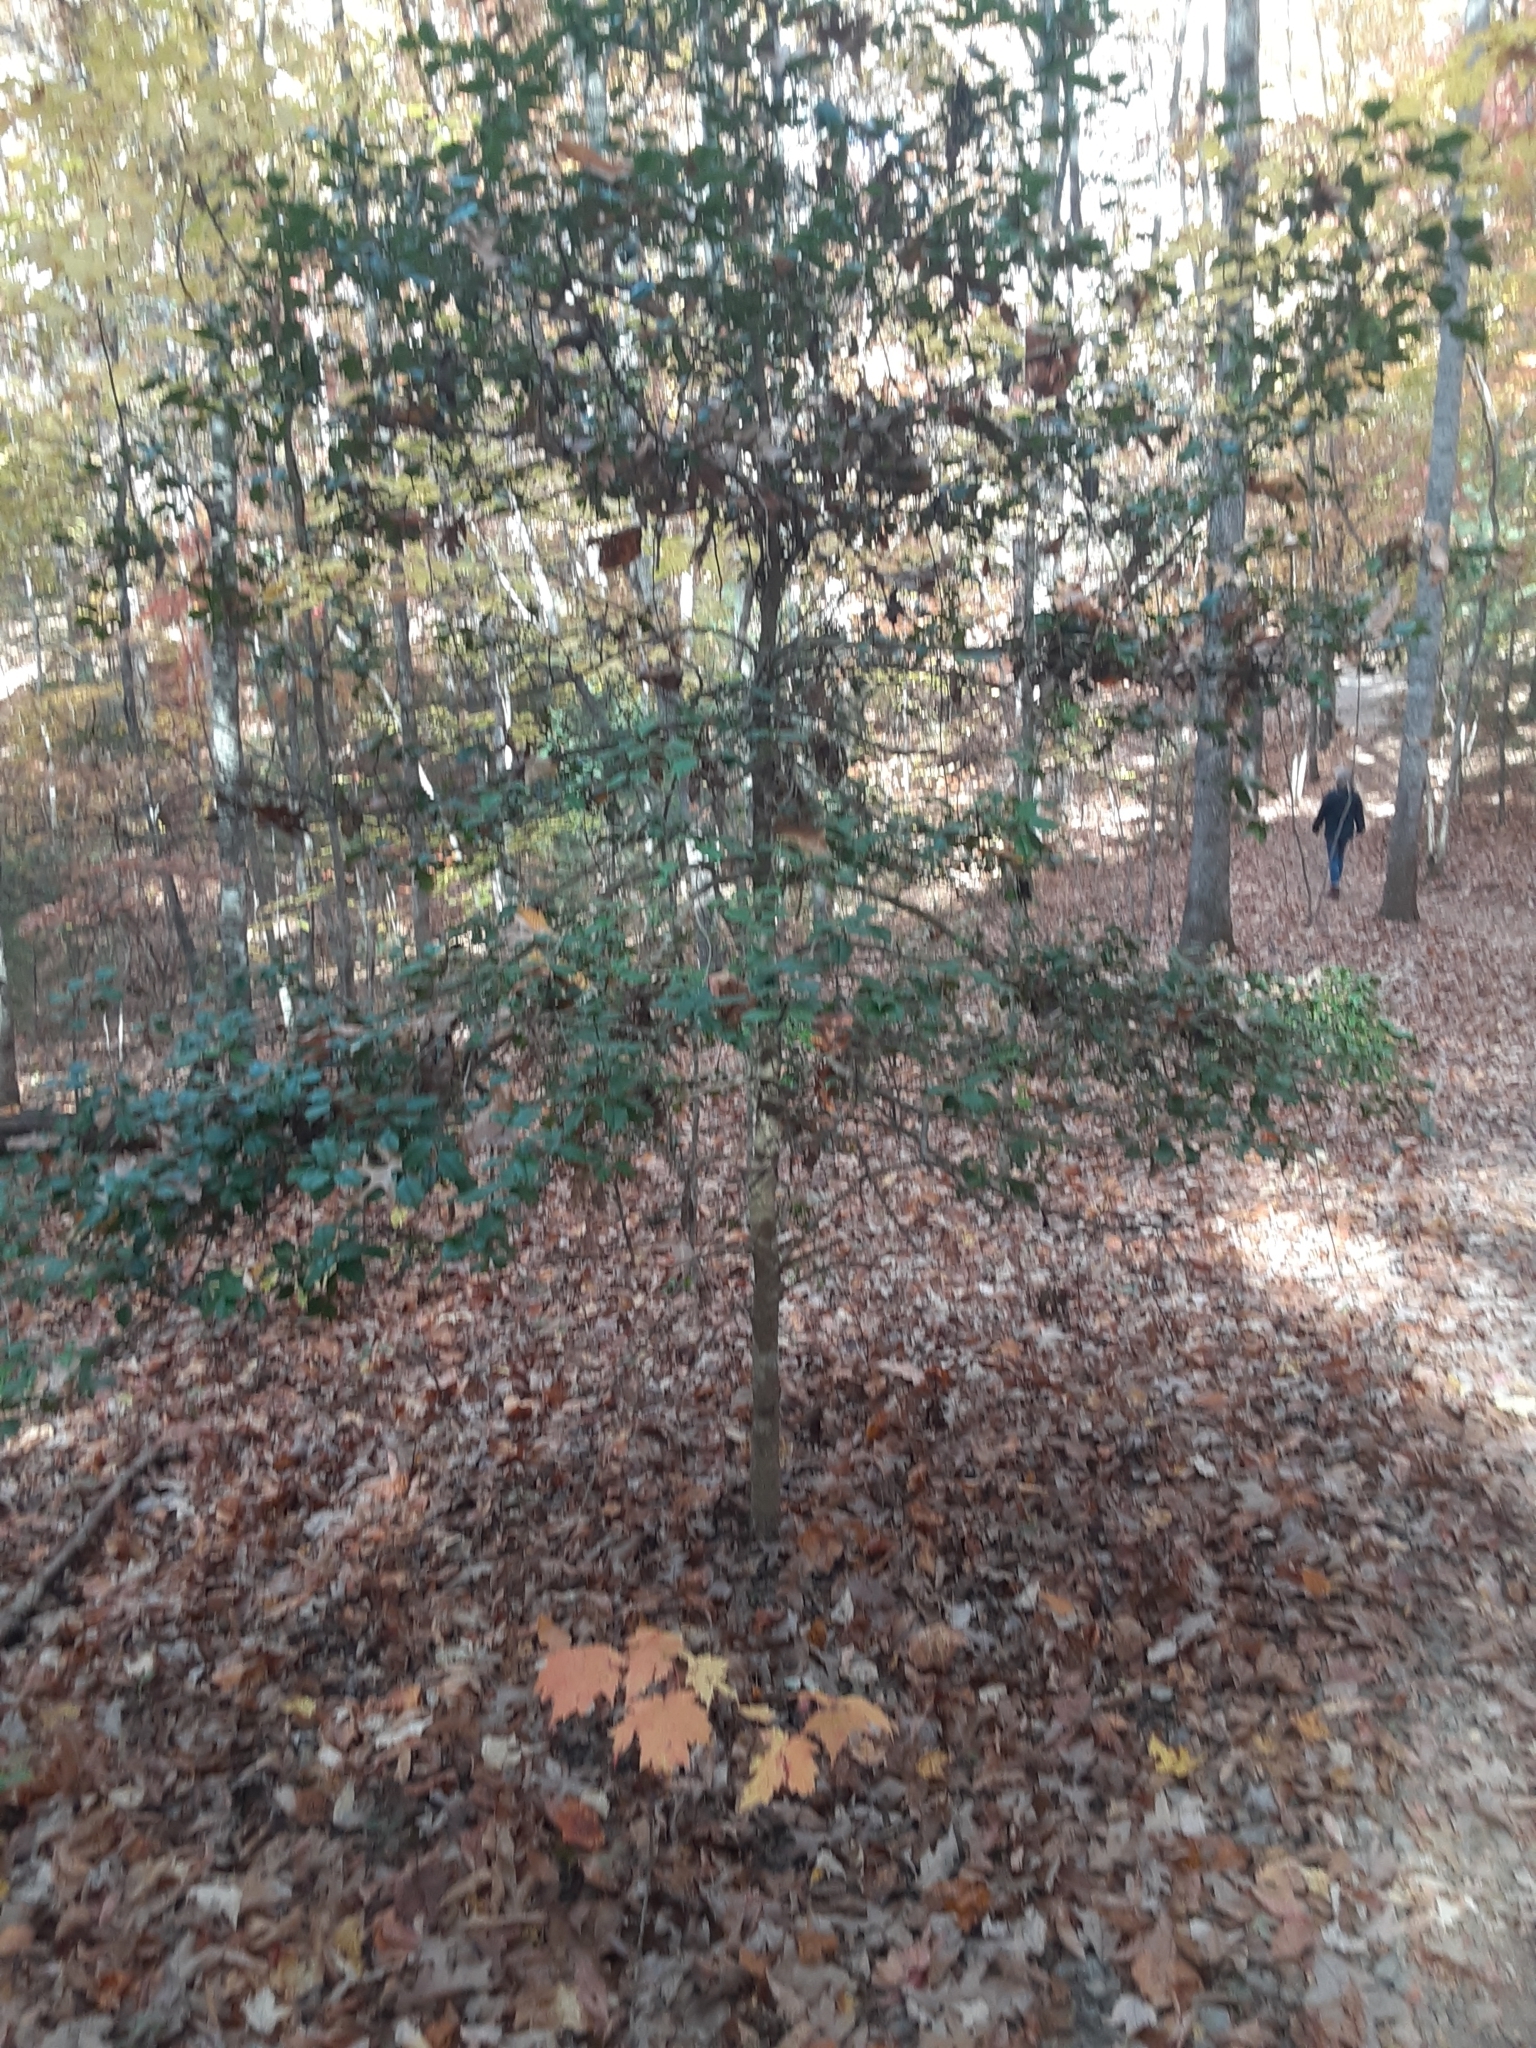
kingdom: Plantae
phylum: Tracheophyta
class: Magnoliopsida
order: Aquifoliales
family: Aquifoliaceae
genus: Ilex
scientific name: Ilex opaca
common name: American holly
